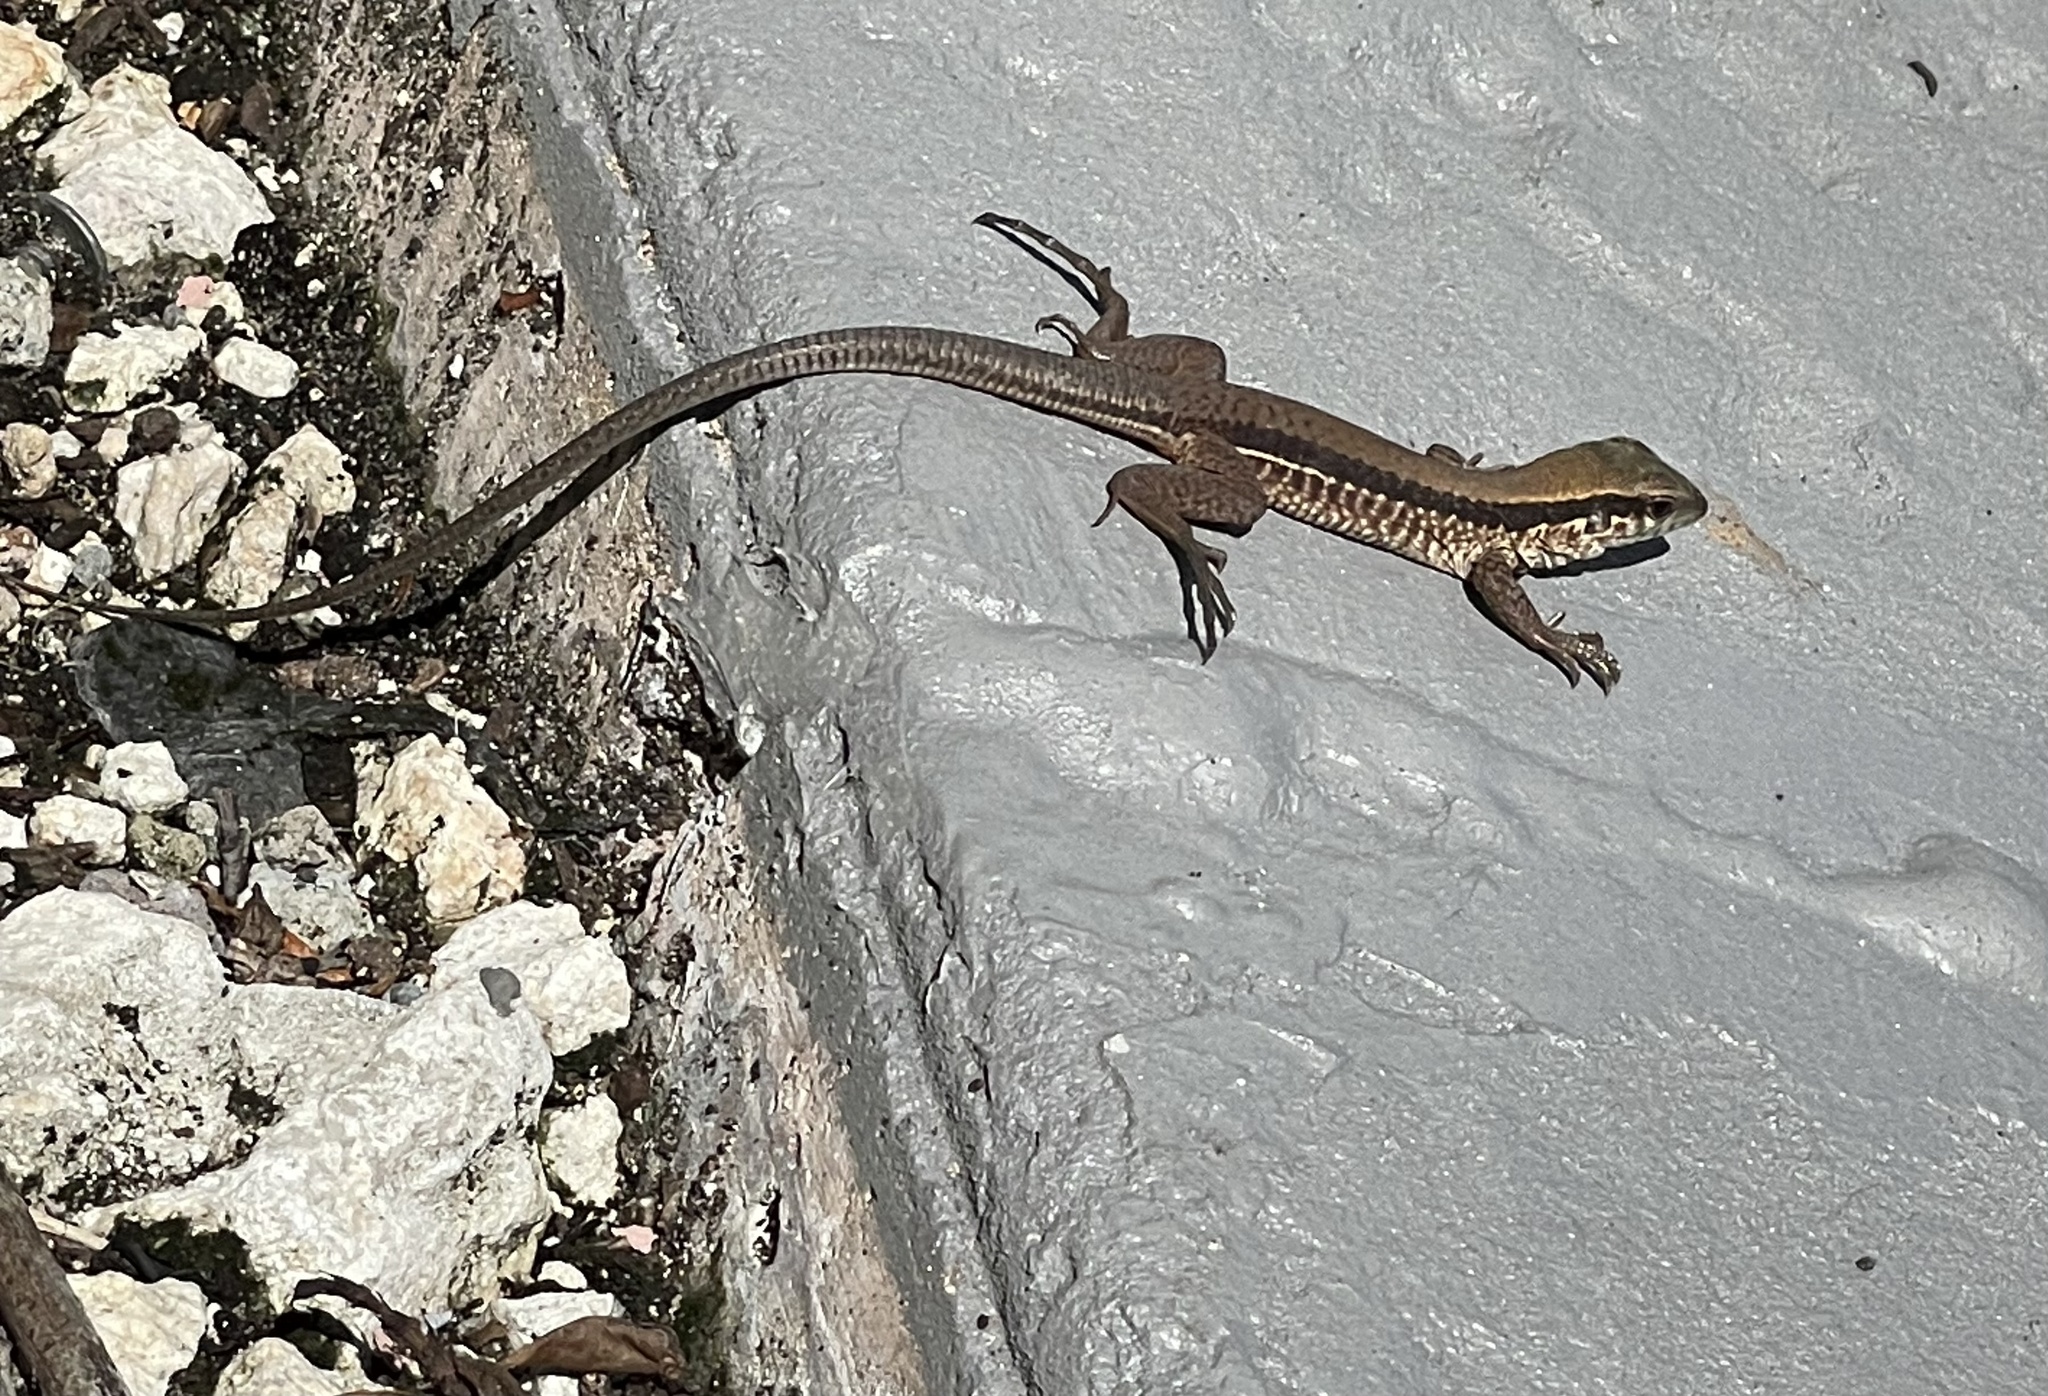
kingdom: Animalia
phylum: Chordata
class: Squamata
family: Teiidae
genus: Ameiva
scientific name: Ameiva ameiva
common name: Giant ameiva
